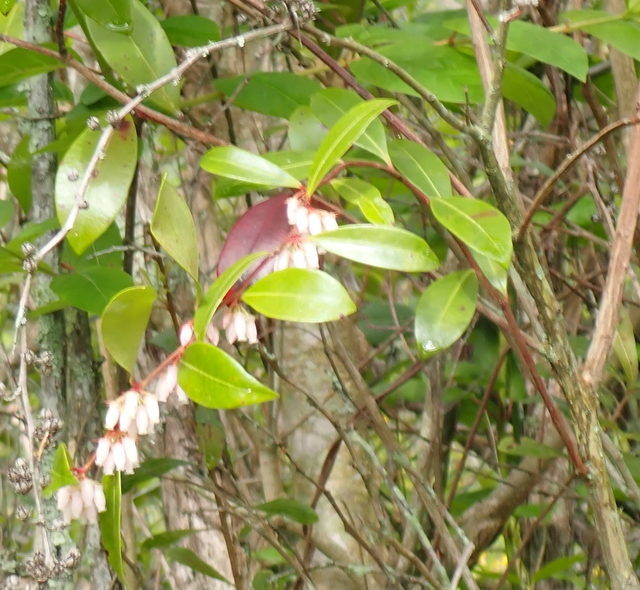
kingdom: Plantae
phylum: Tracheophyta
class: Magnoliopsida
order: Ericales
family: Ericaceae
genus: Lyonia
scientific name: Lyonia lucida
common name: Fetterbush
